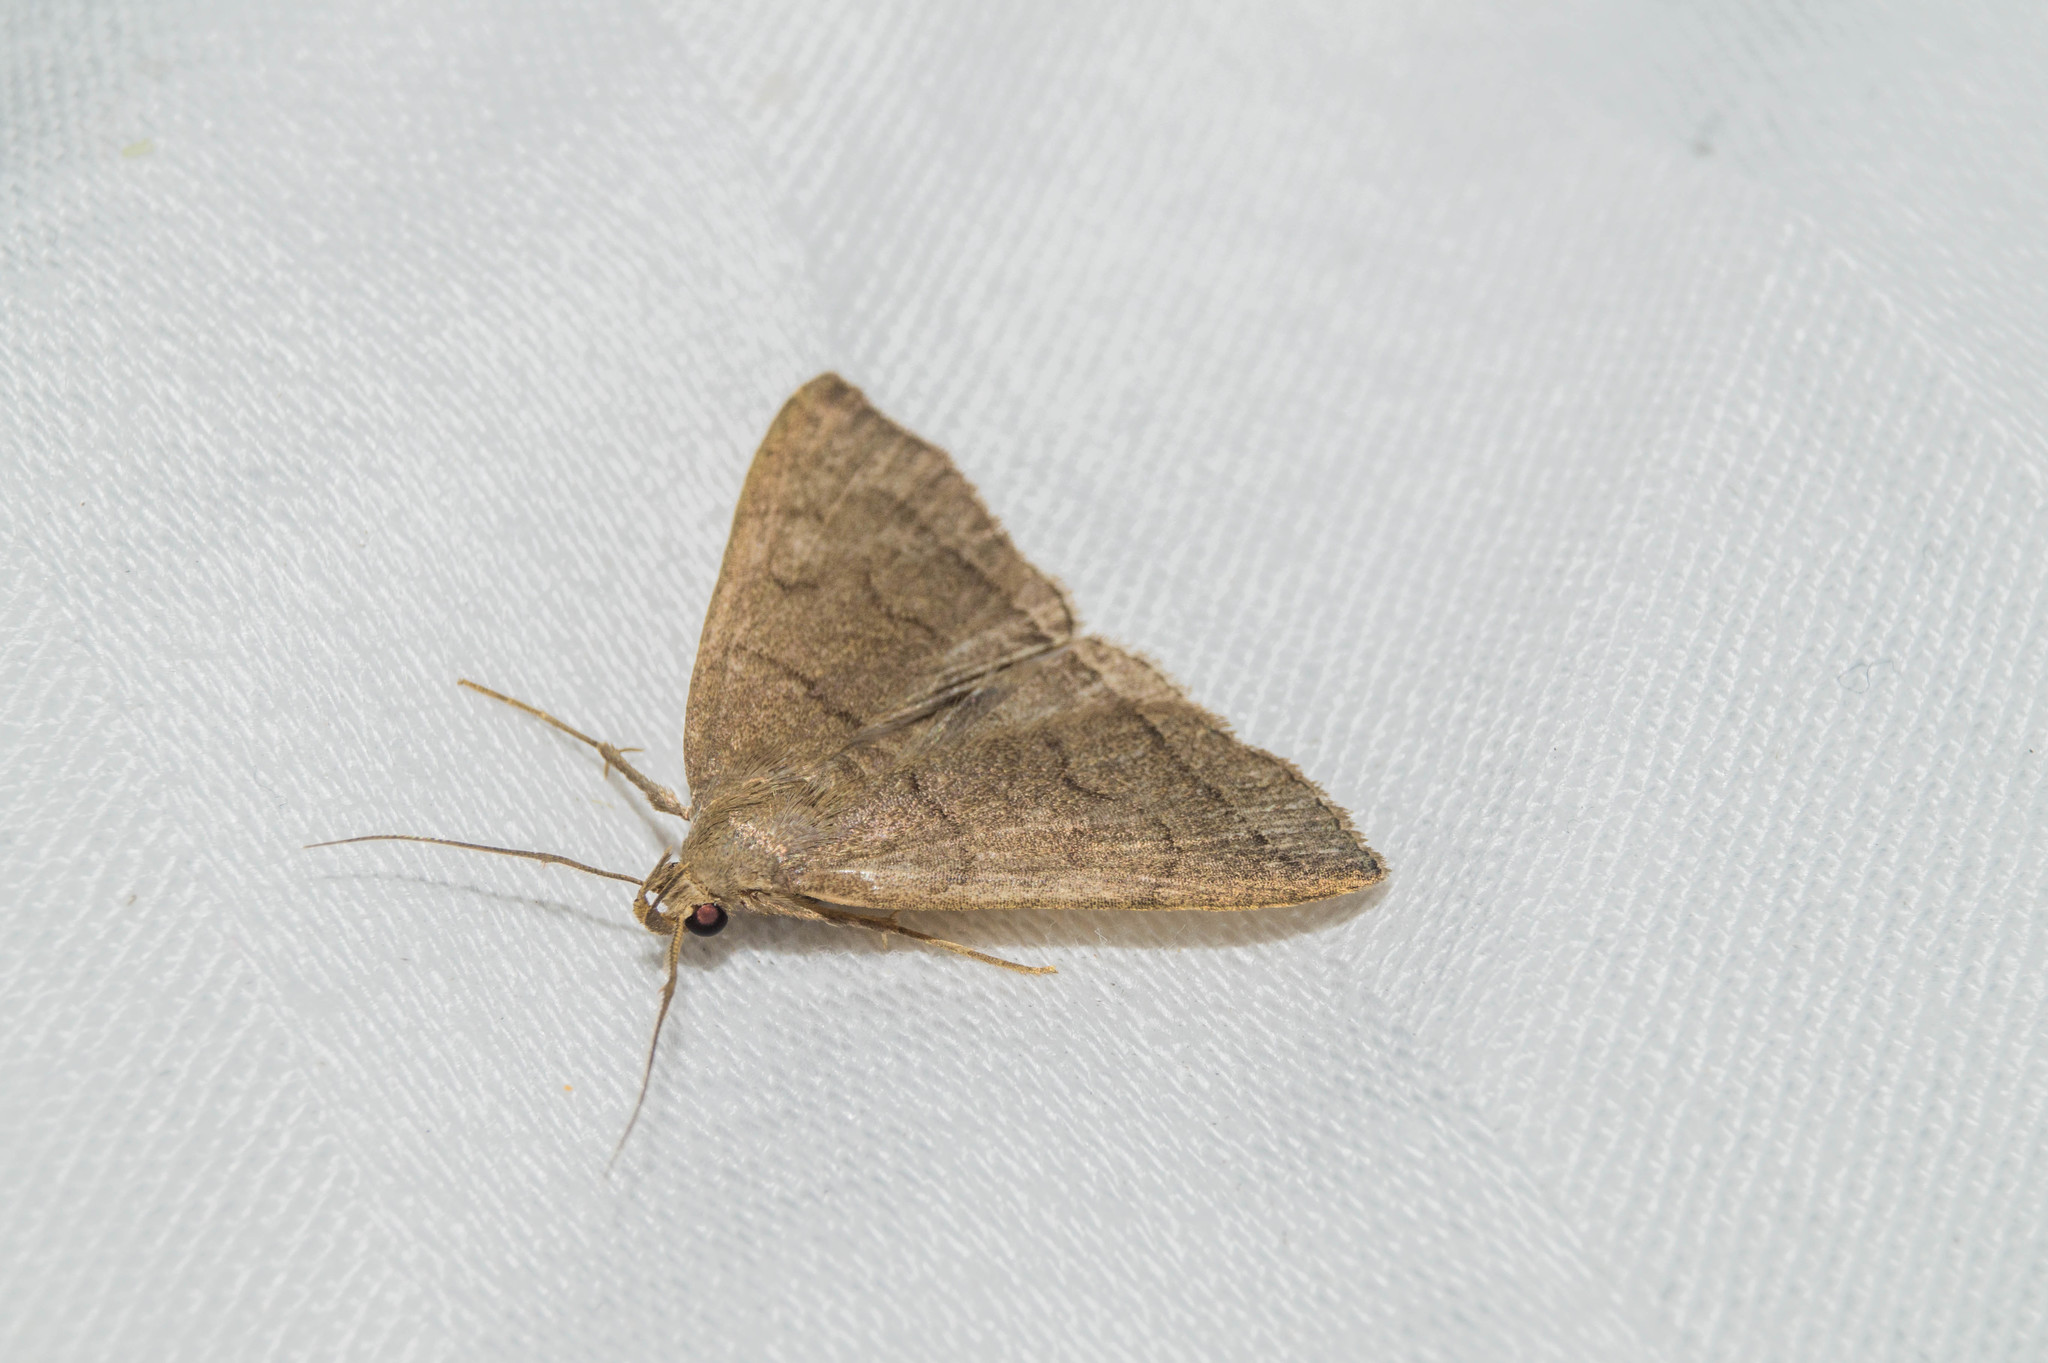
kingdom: Animalia
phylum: Arthropoda
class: Insecta
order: Lepidoptera
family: Erebidae
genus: Herminia
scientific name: Herminia tarsipennalis
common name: Fan-foot
